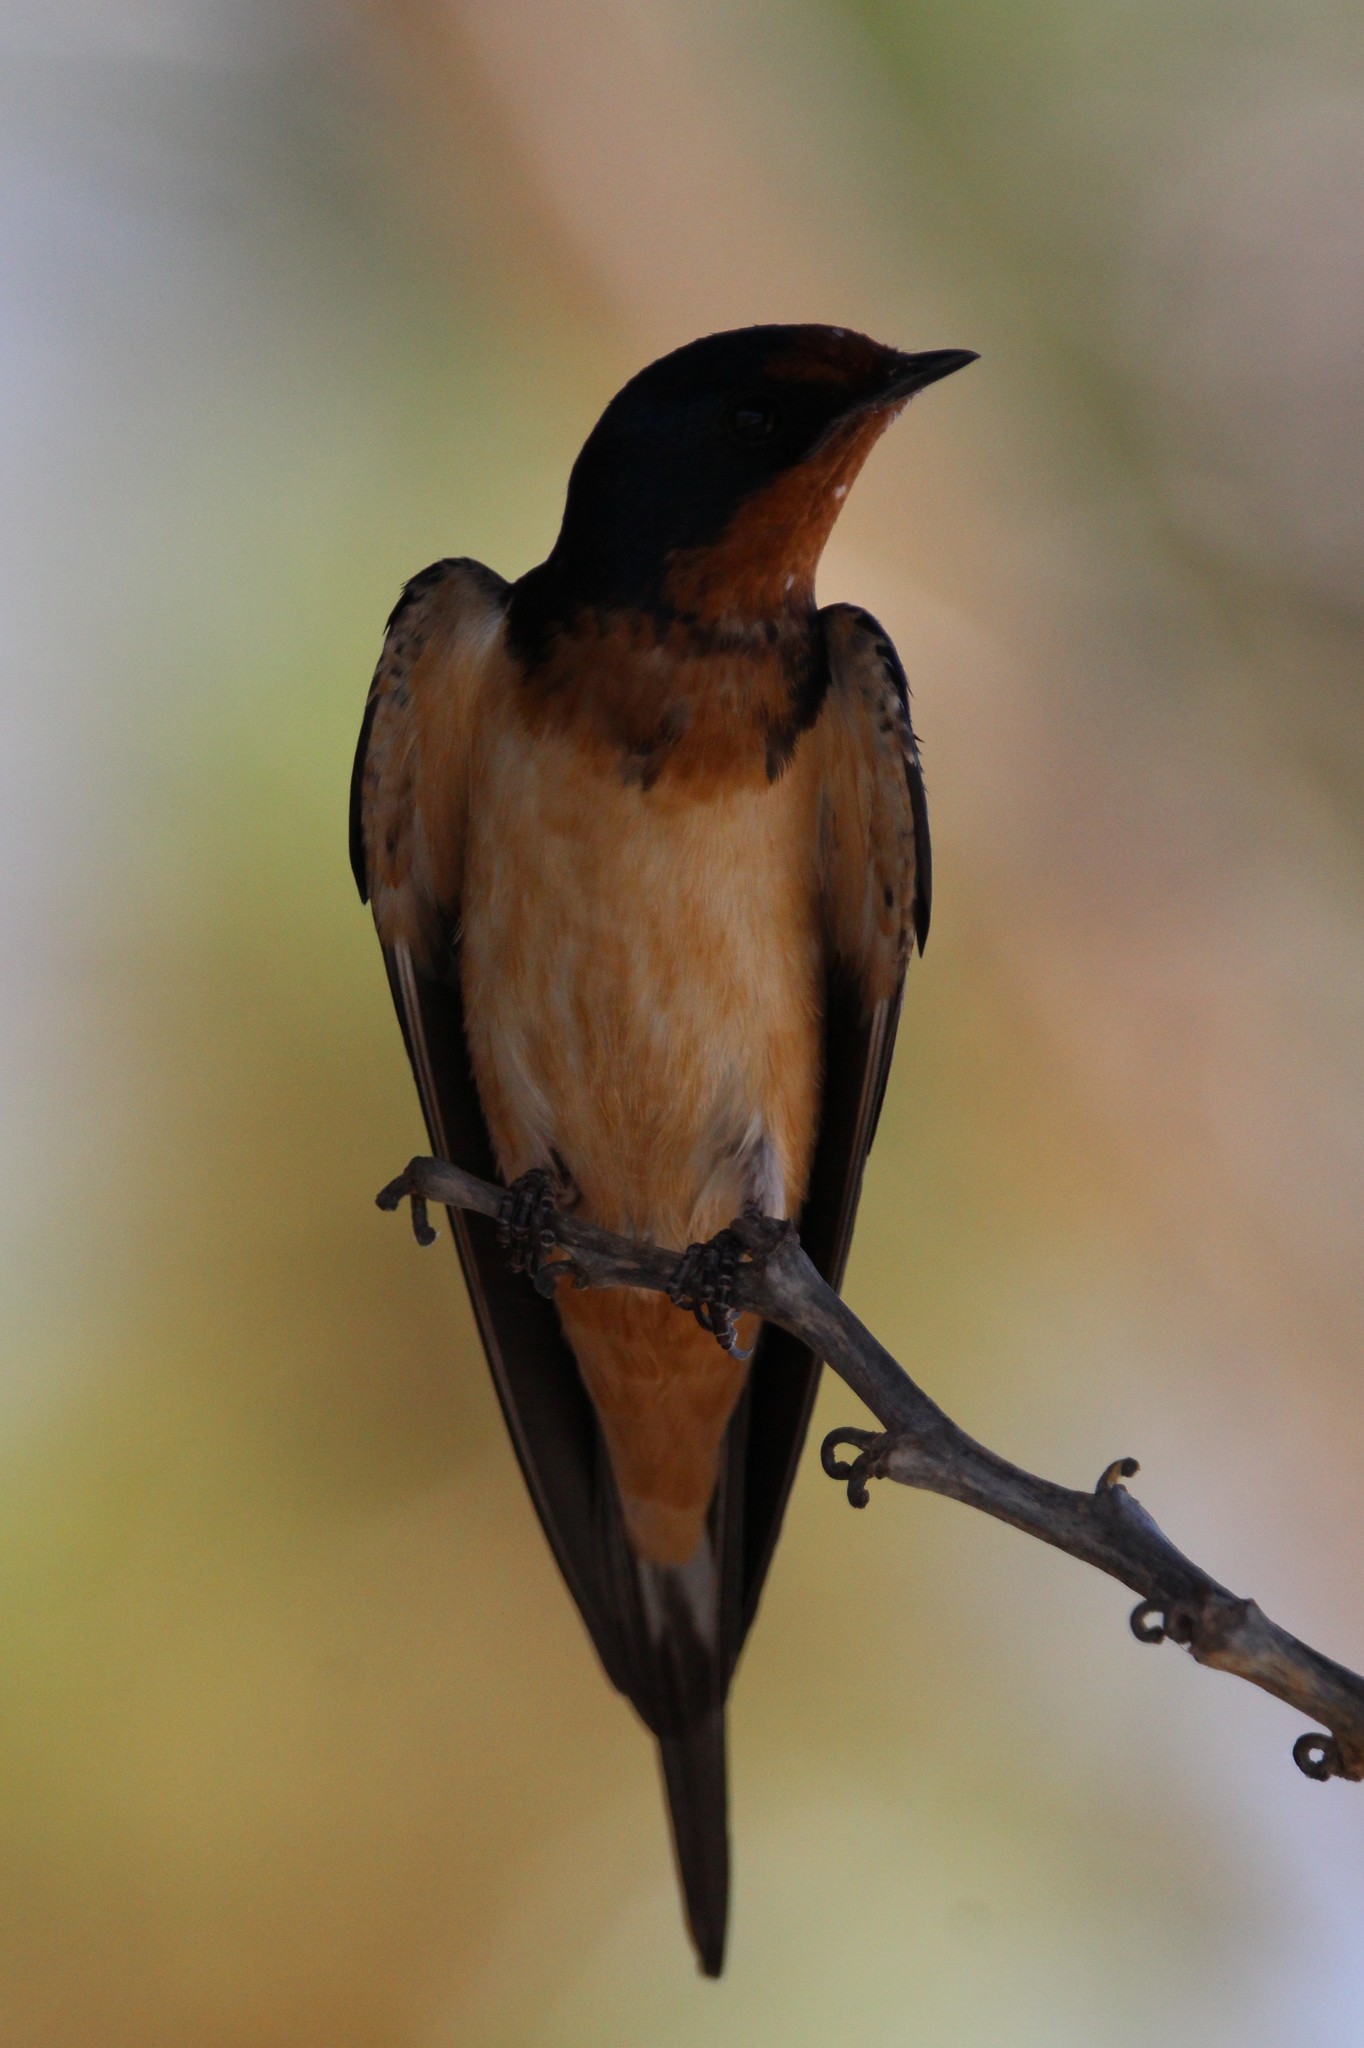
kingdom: Animalia
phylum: Chordata
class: Aves
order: Passeriformes
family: Hirundinidae
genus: Hirundo
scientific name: Hirundo rustica
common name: Barn swallow
